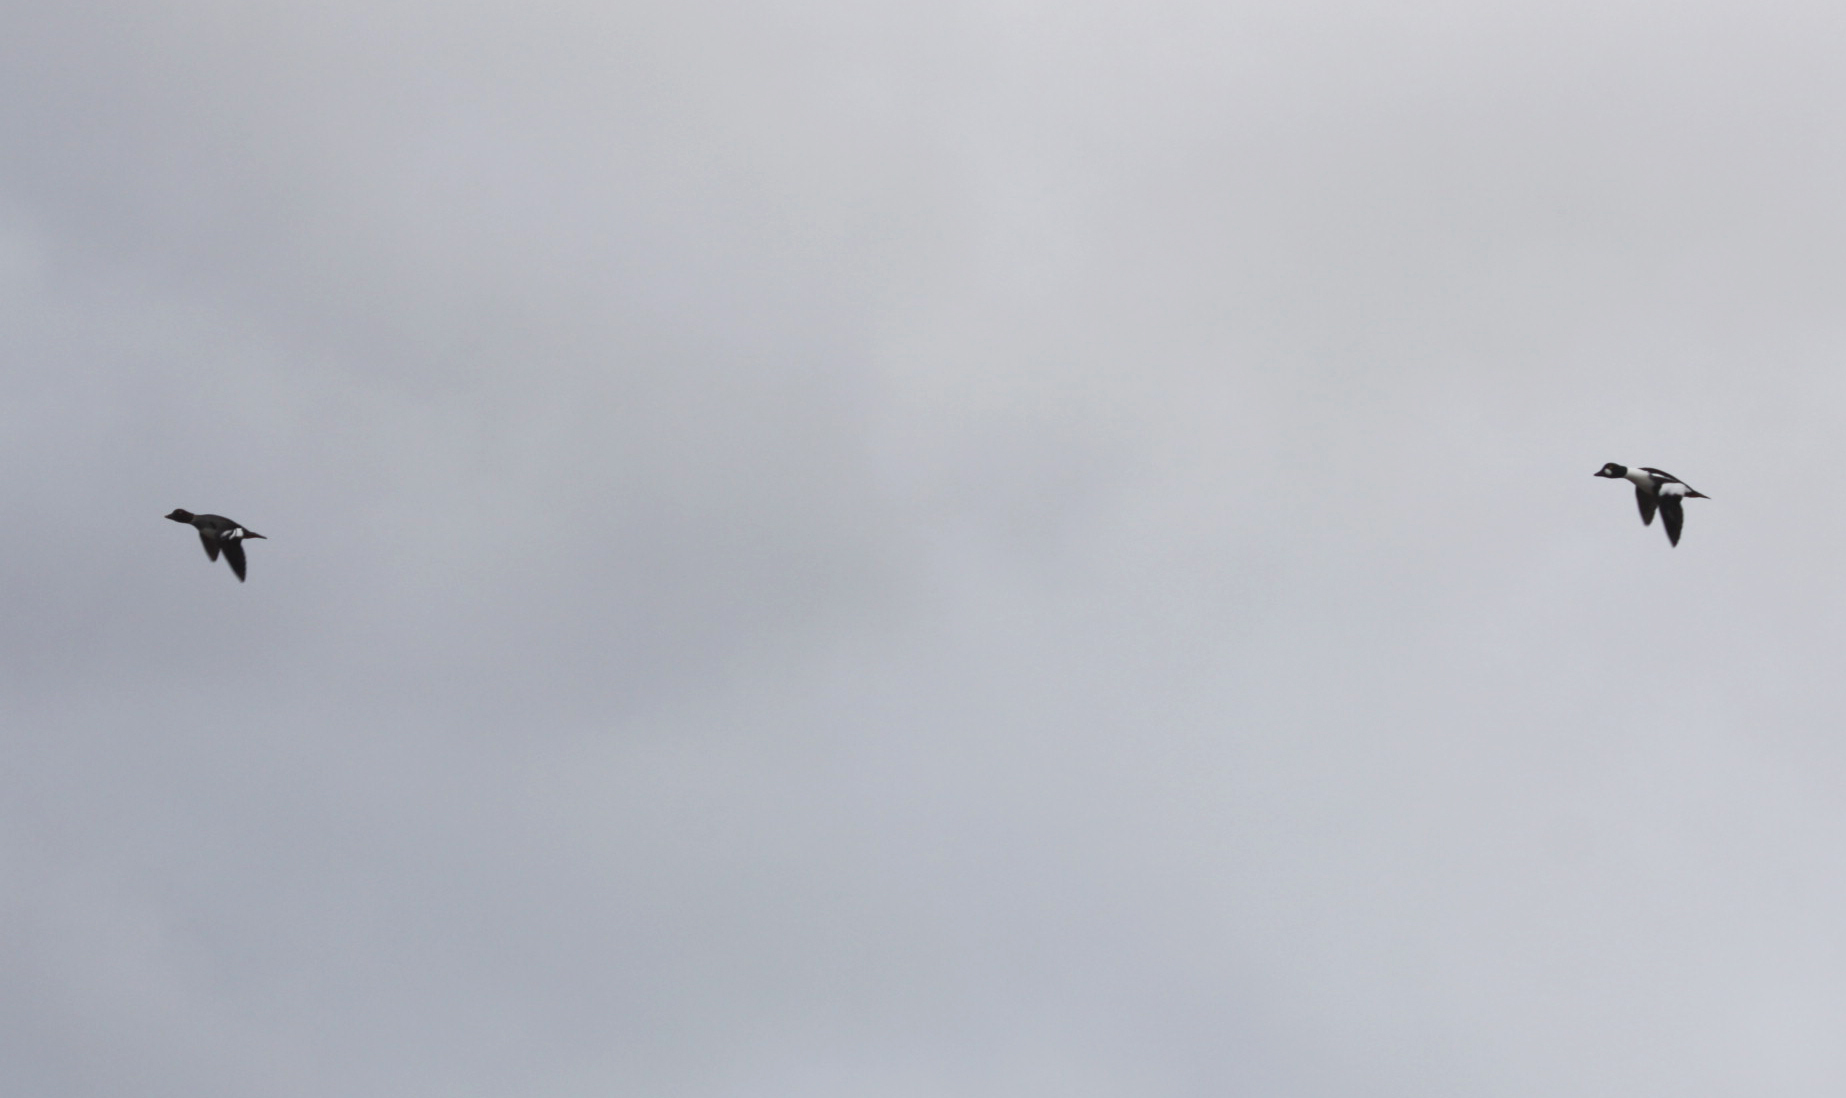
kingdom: Animalia
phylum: Chordata
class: Aves
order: Anseriformes
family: Anatidae
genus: Bucephala
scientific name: Bucephala clangula
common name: Common goldeneye
